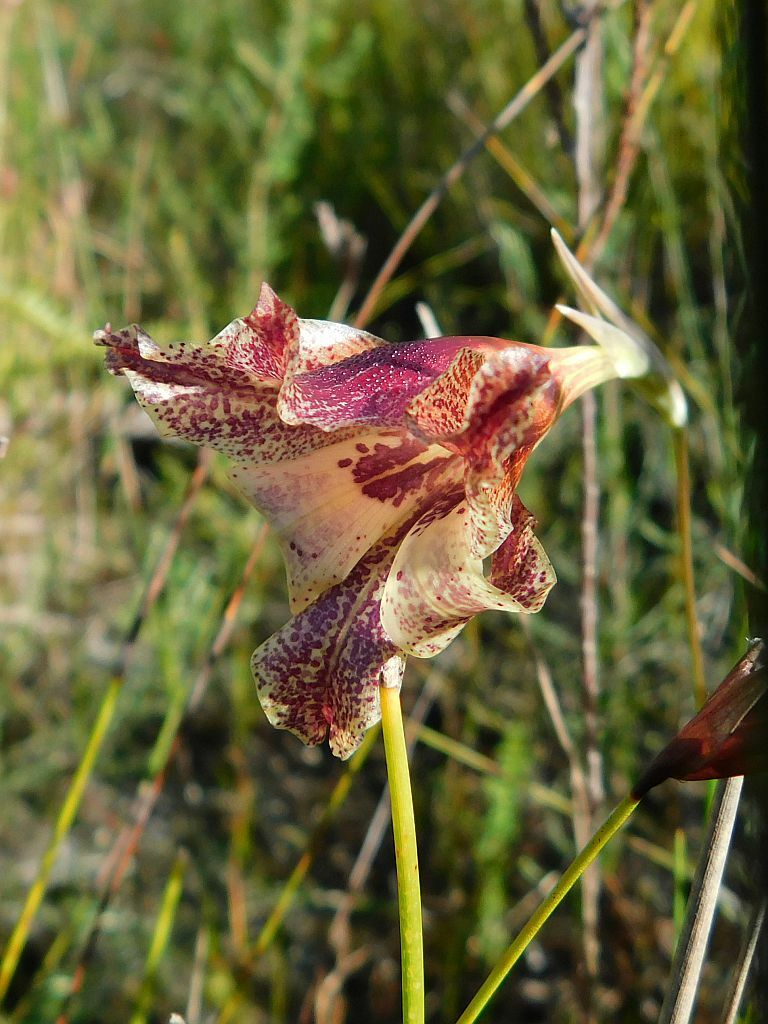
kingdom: Plantae
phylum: Tracheophyta
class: Liliopsida
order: Asparagales
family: Iridaceae
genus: Gladiolus
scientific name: Gladiolus maculatus
